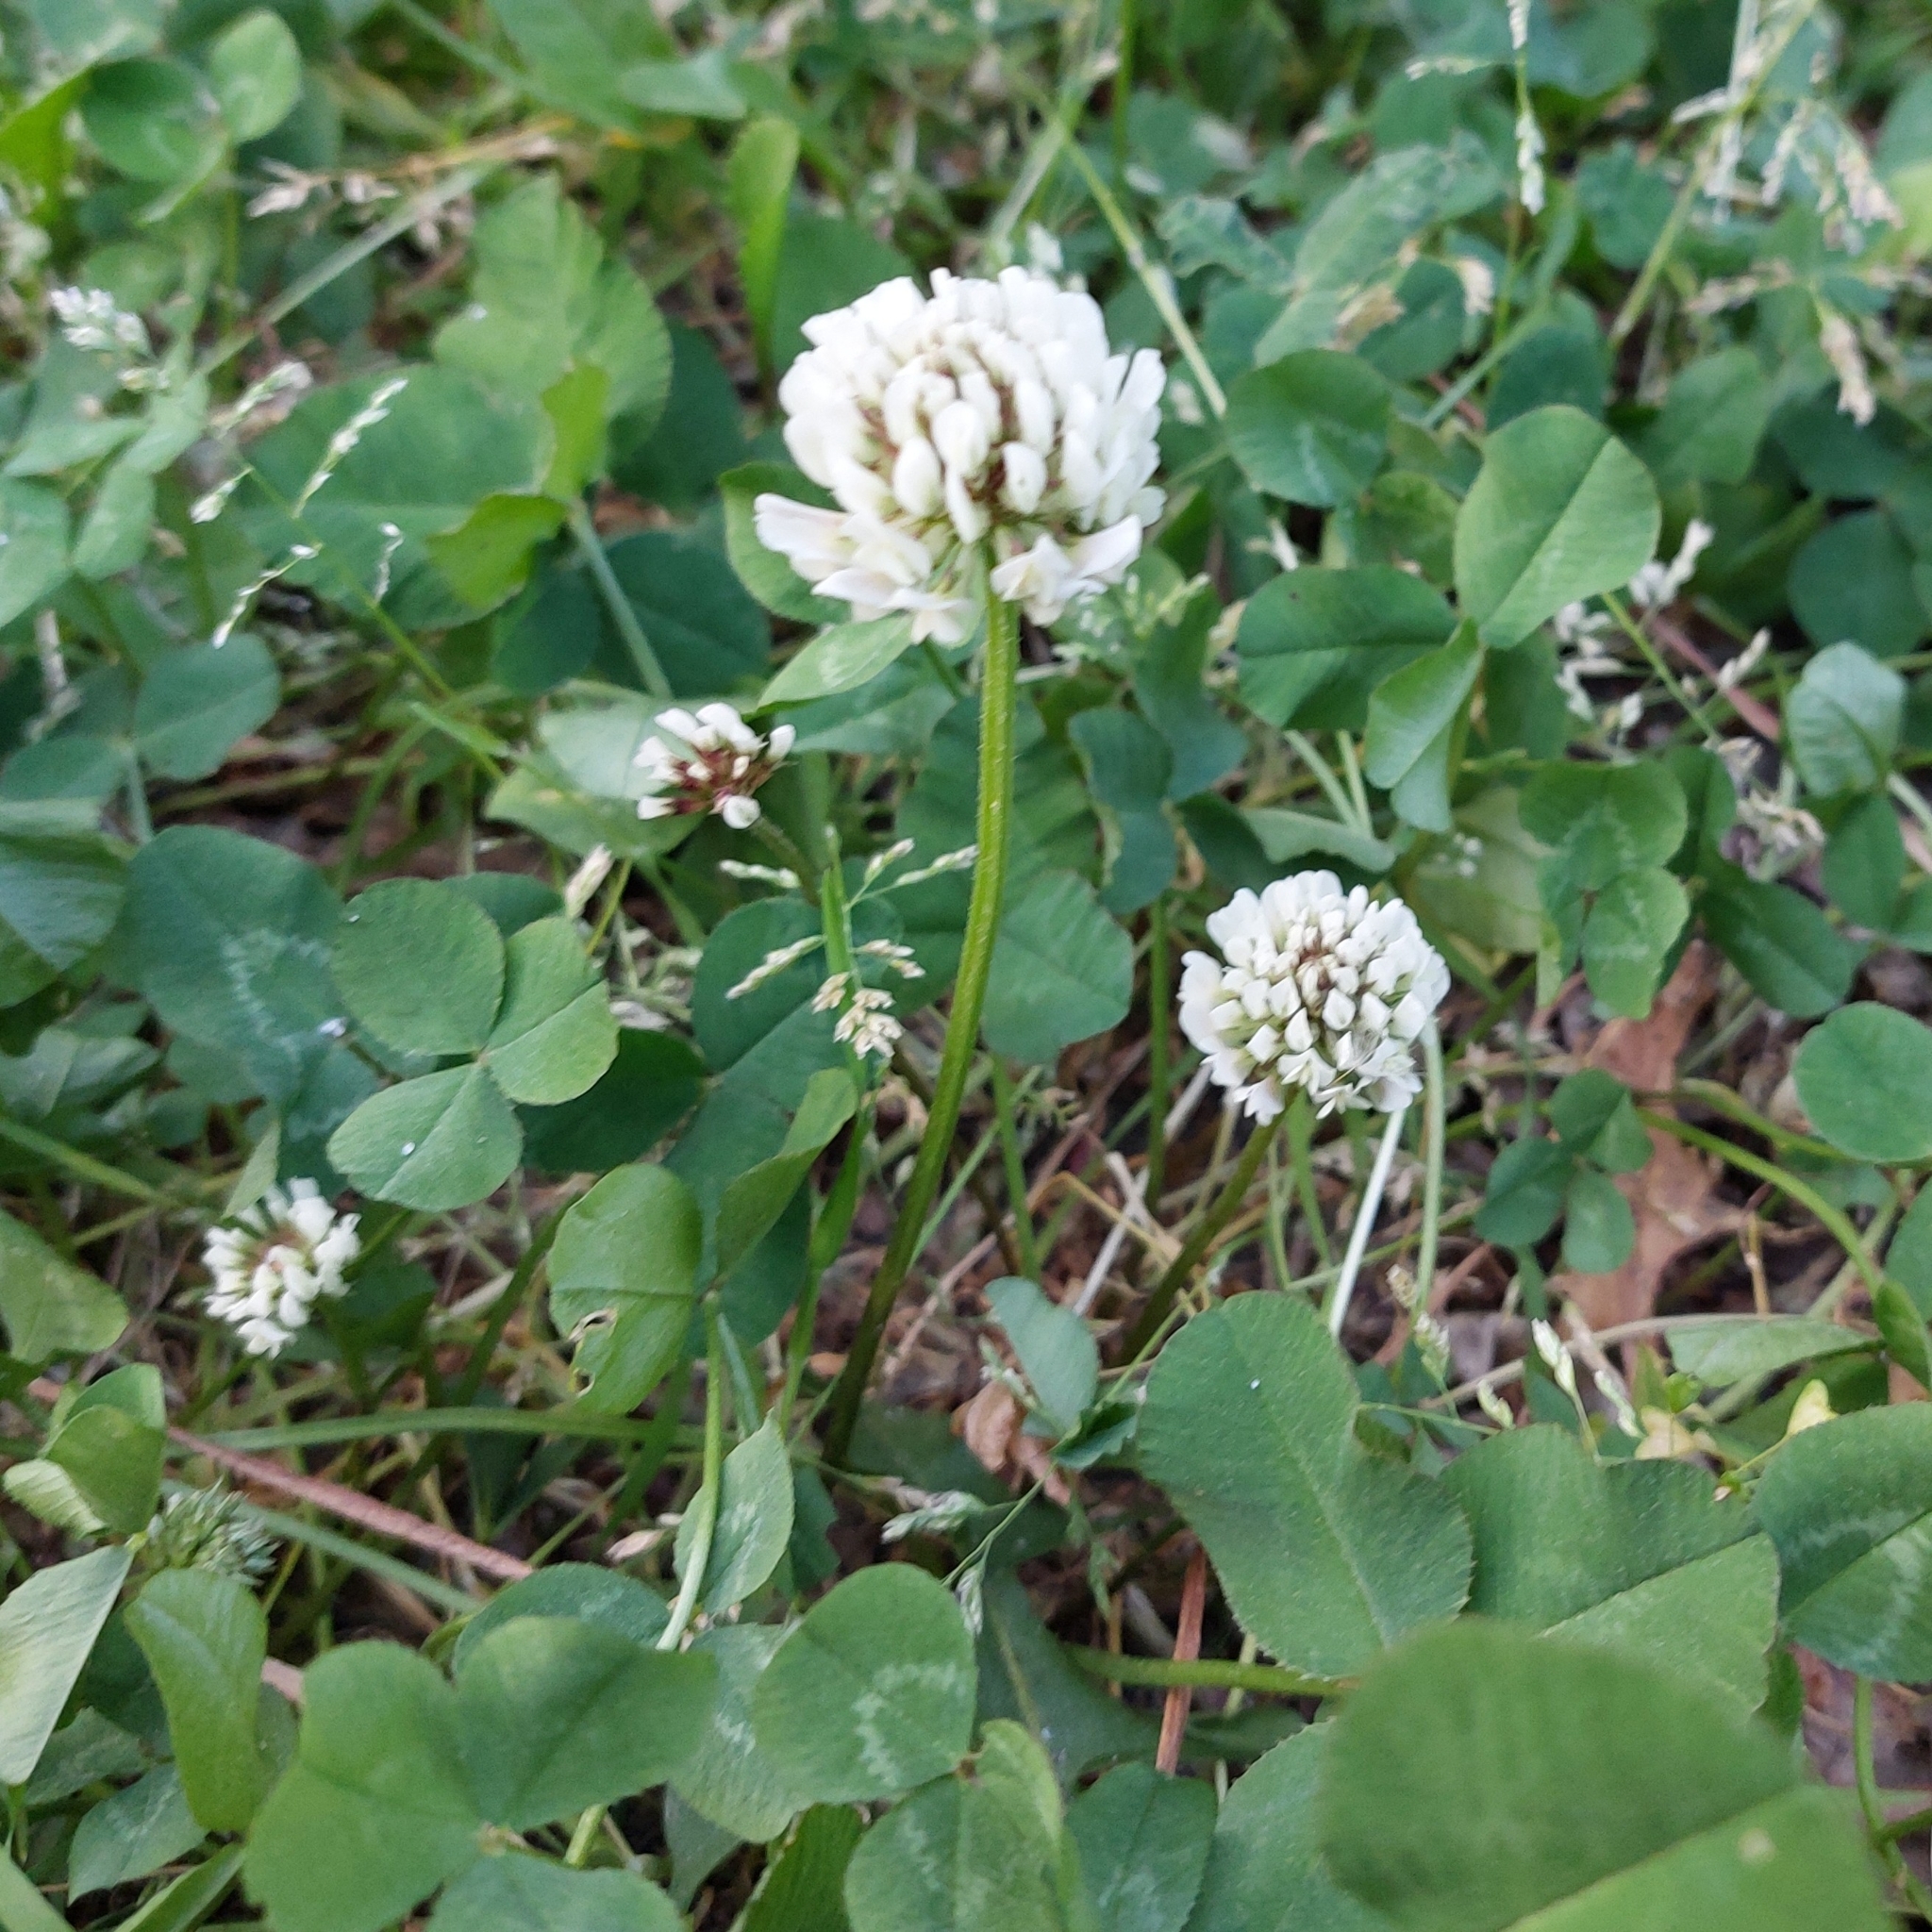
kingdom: Plantae
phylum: Tracheophyta
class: Magnoliopsida
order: Fabales
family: Fabaceae
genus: Trifolium
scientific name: Trifolium repens
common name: White clover
